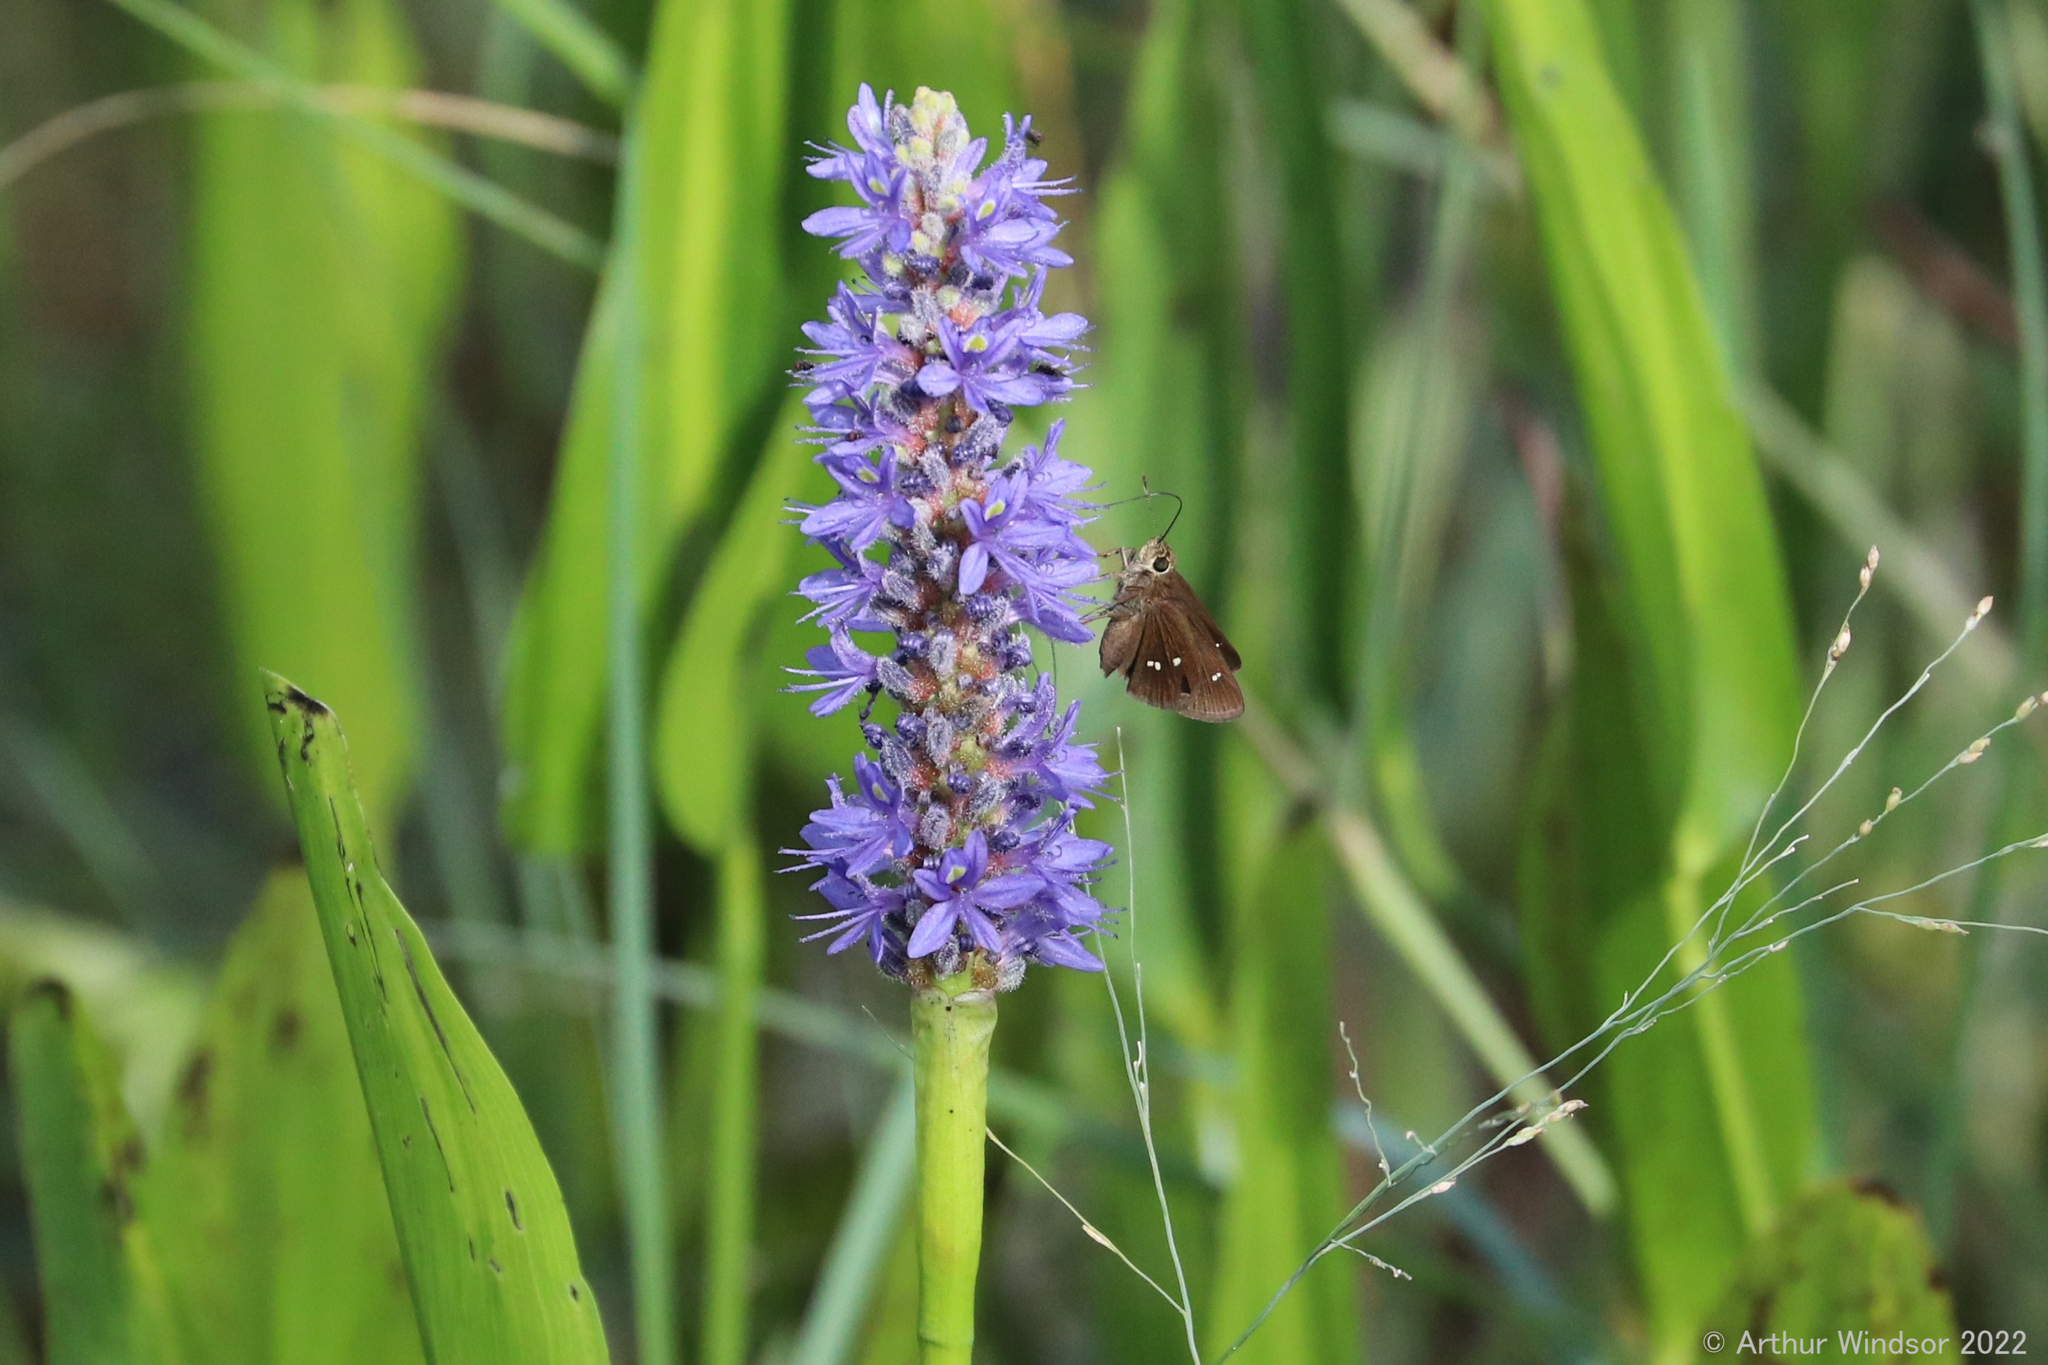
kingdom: Animalia
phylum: Arthropoda
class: Insecta
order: Lepidoptera
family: Hesperiidae
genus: Oligoria
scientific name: Oligoria maculata
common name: Twin-spot skipper
